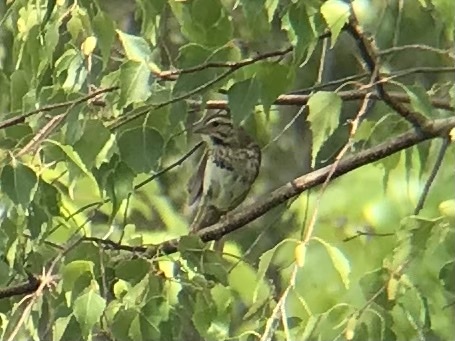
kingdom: Animalia
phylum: Chordata
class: Aves
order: Passeriformes
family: Passerellidae
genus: Melospiza
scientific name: Melospiza melodia
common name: Song sparrow
